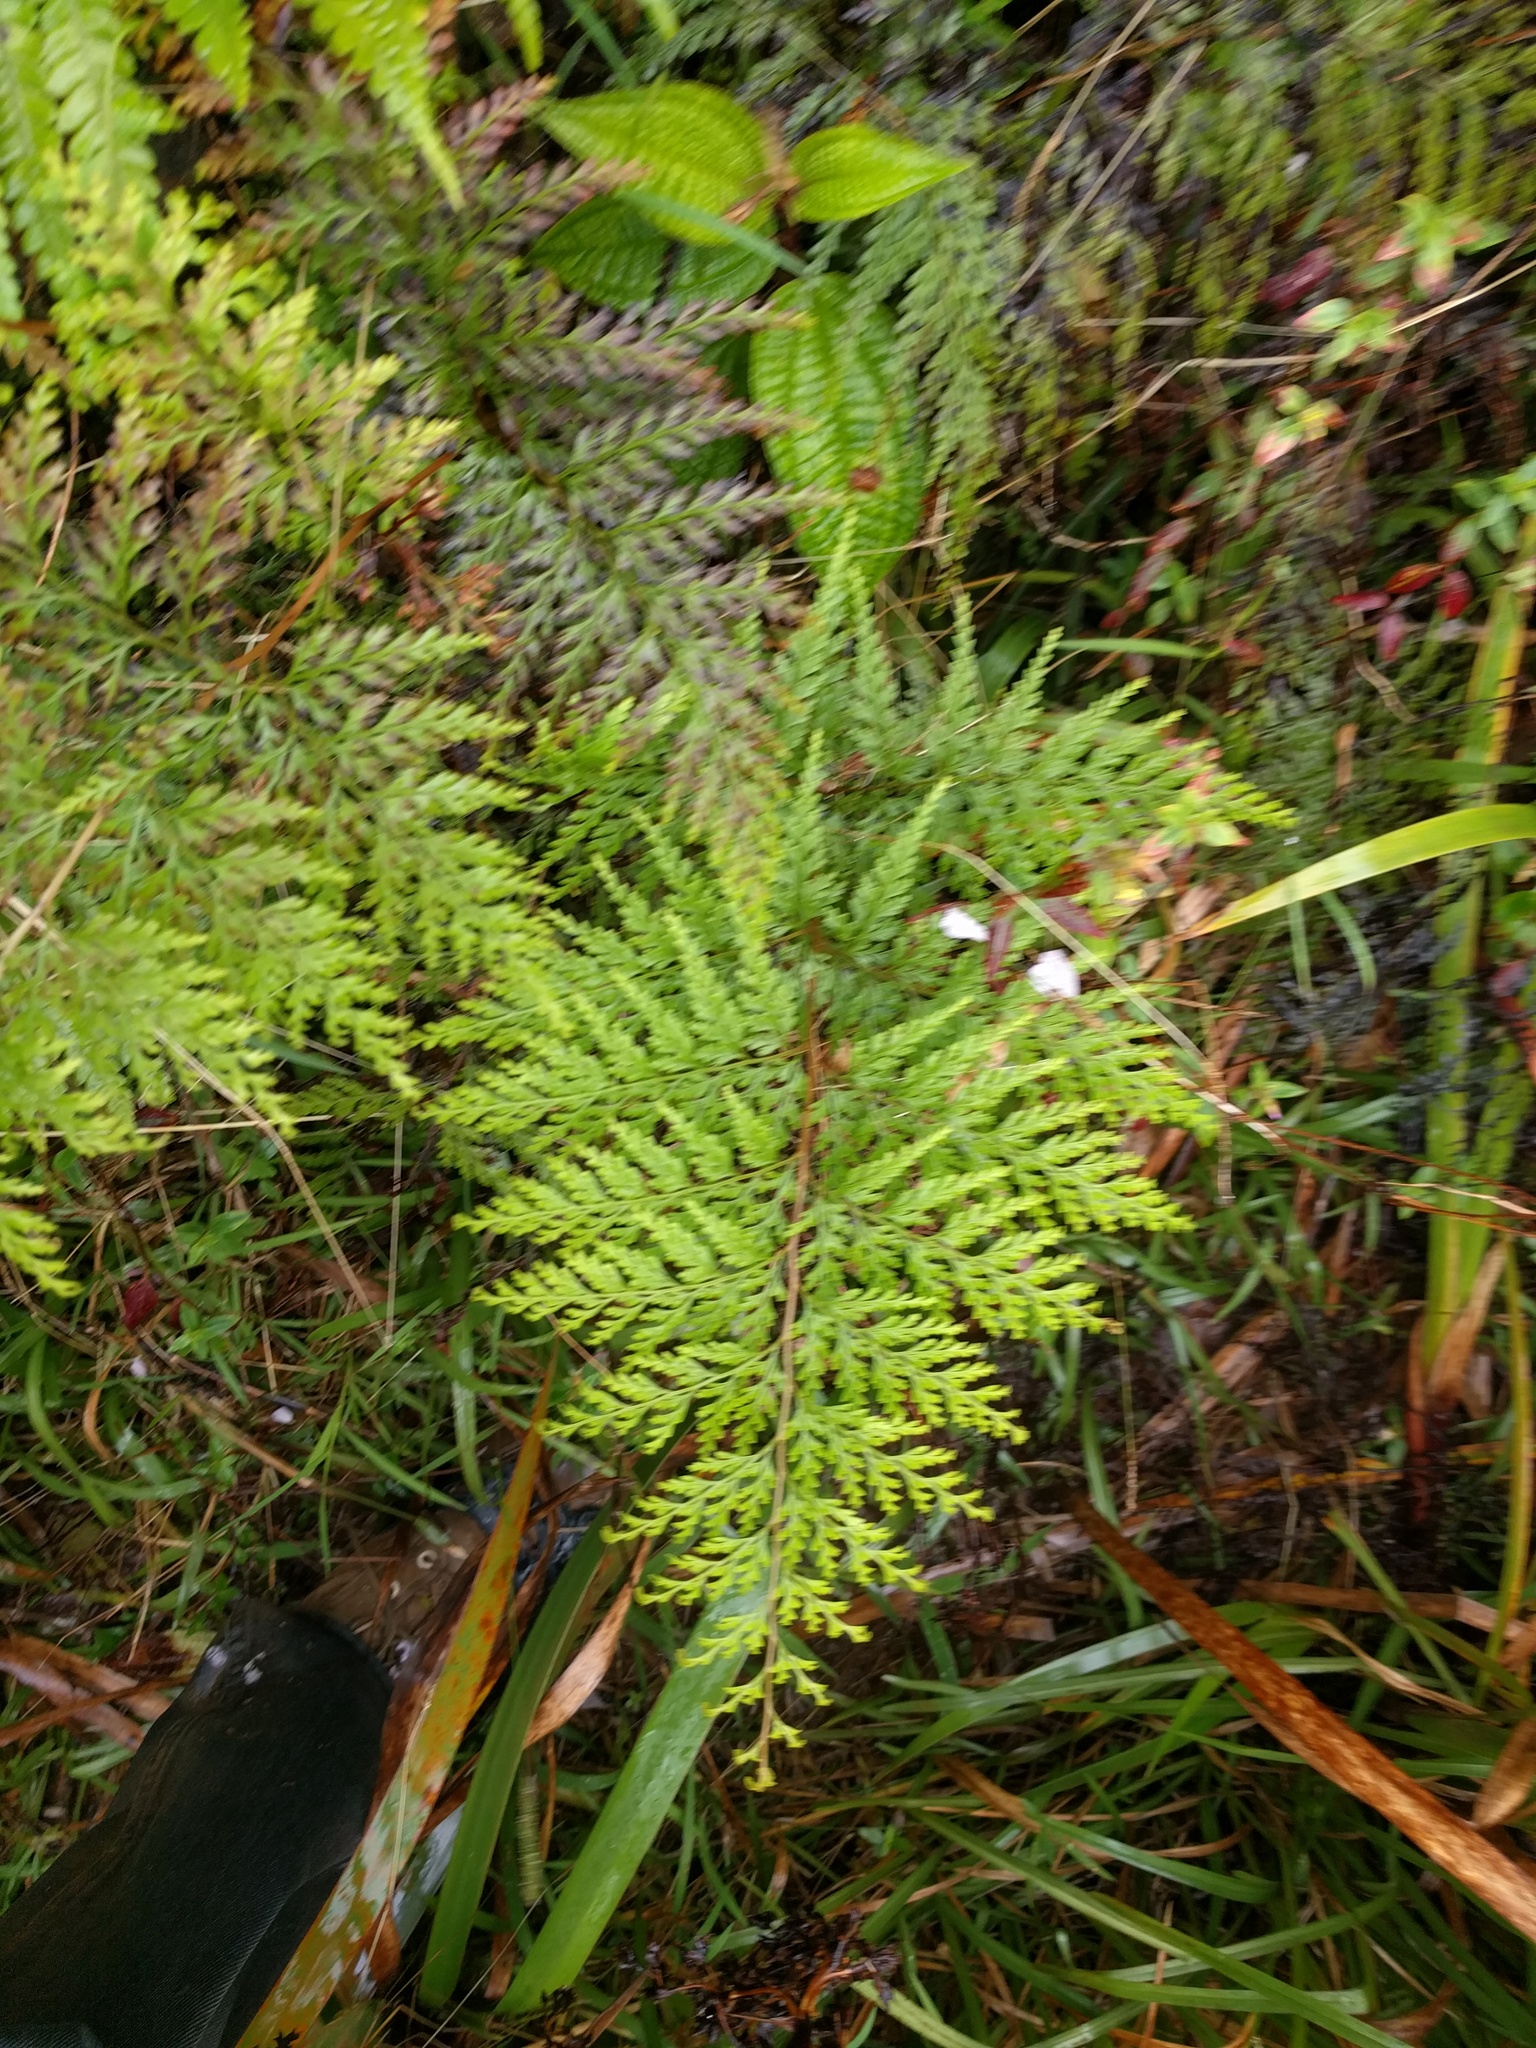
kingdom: Plantae
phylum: Tracheophyta
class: Polypodiopsida
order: Polypodiales
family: Lindsaeaceae
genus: Odontosoria
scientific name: Odontosoria chinensis
